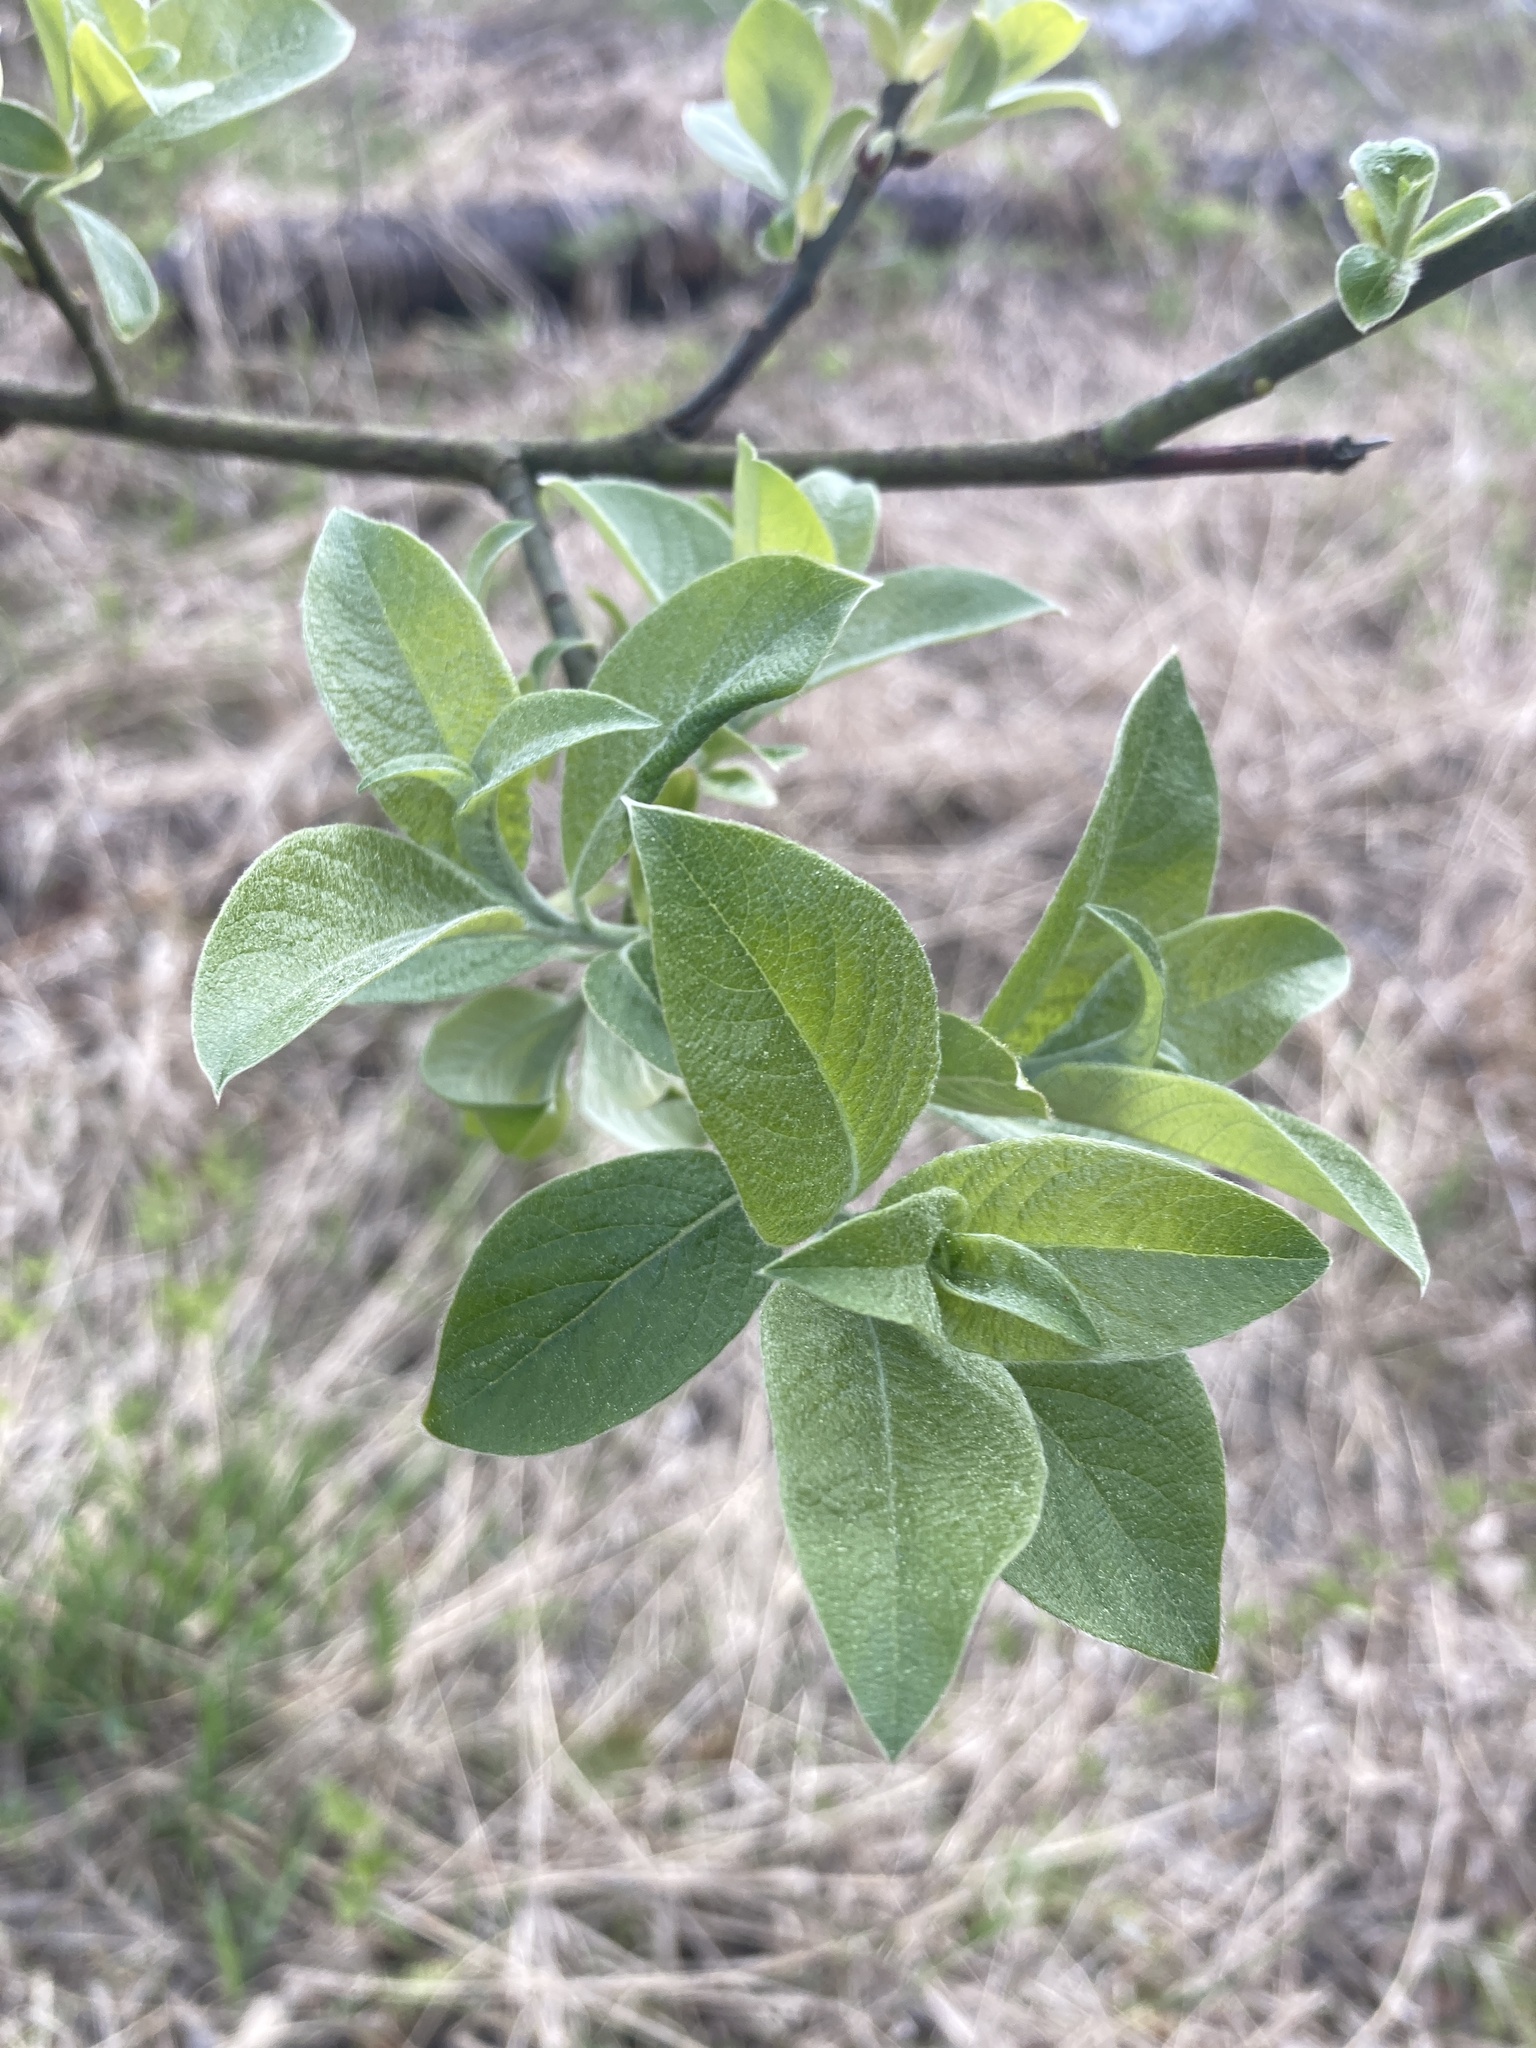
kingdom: Plantae
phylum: Tracheophyta
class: Magnoliopsida
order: Malpighiales
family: Salicaceae
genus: Salix
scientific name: Salix caprea
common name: Goat willow
